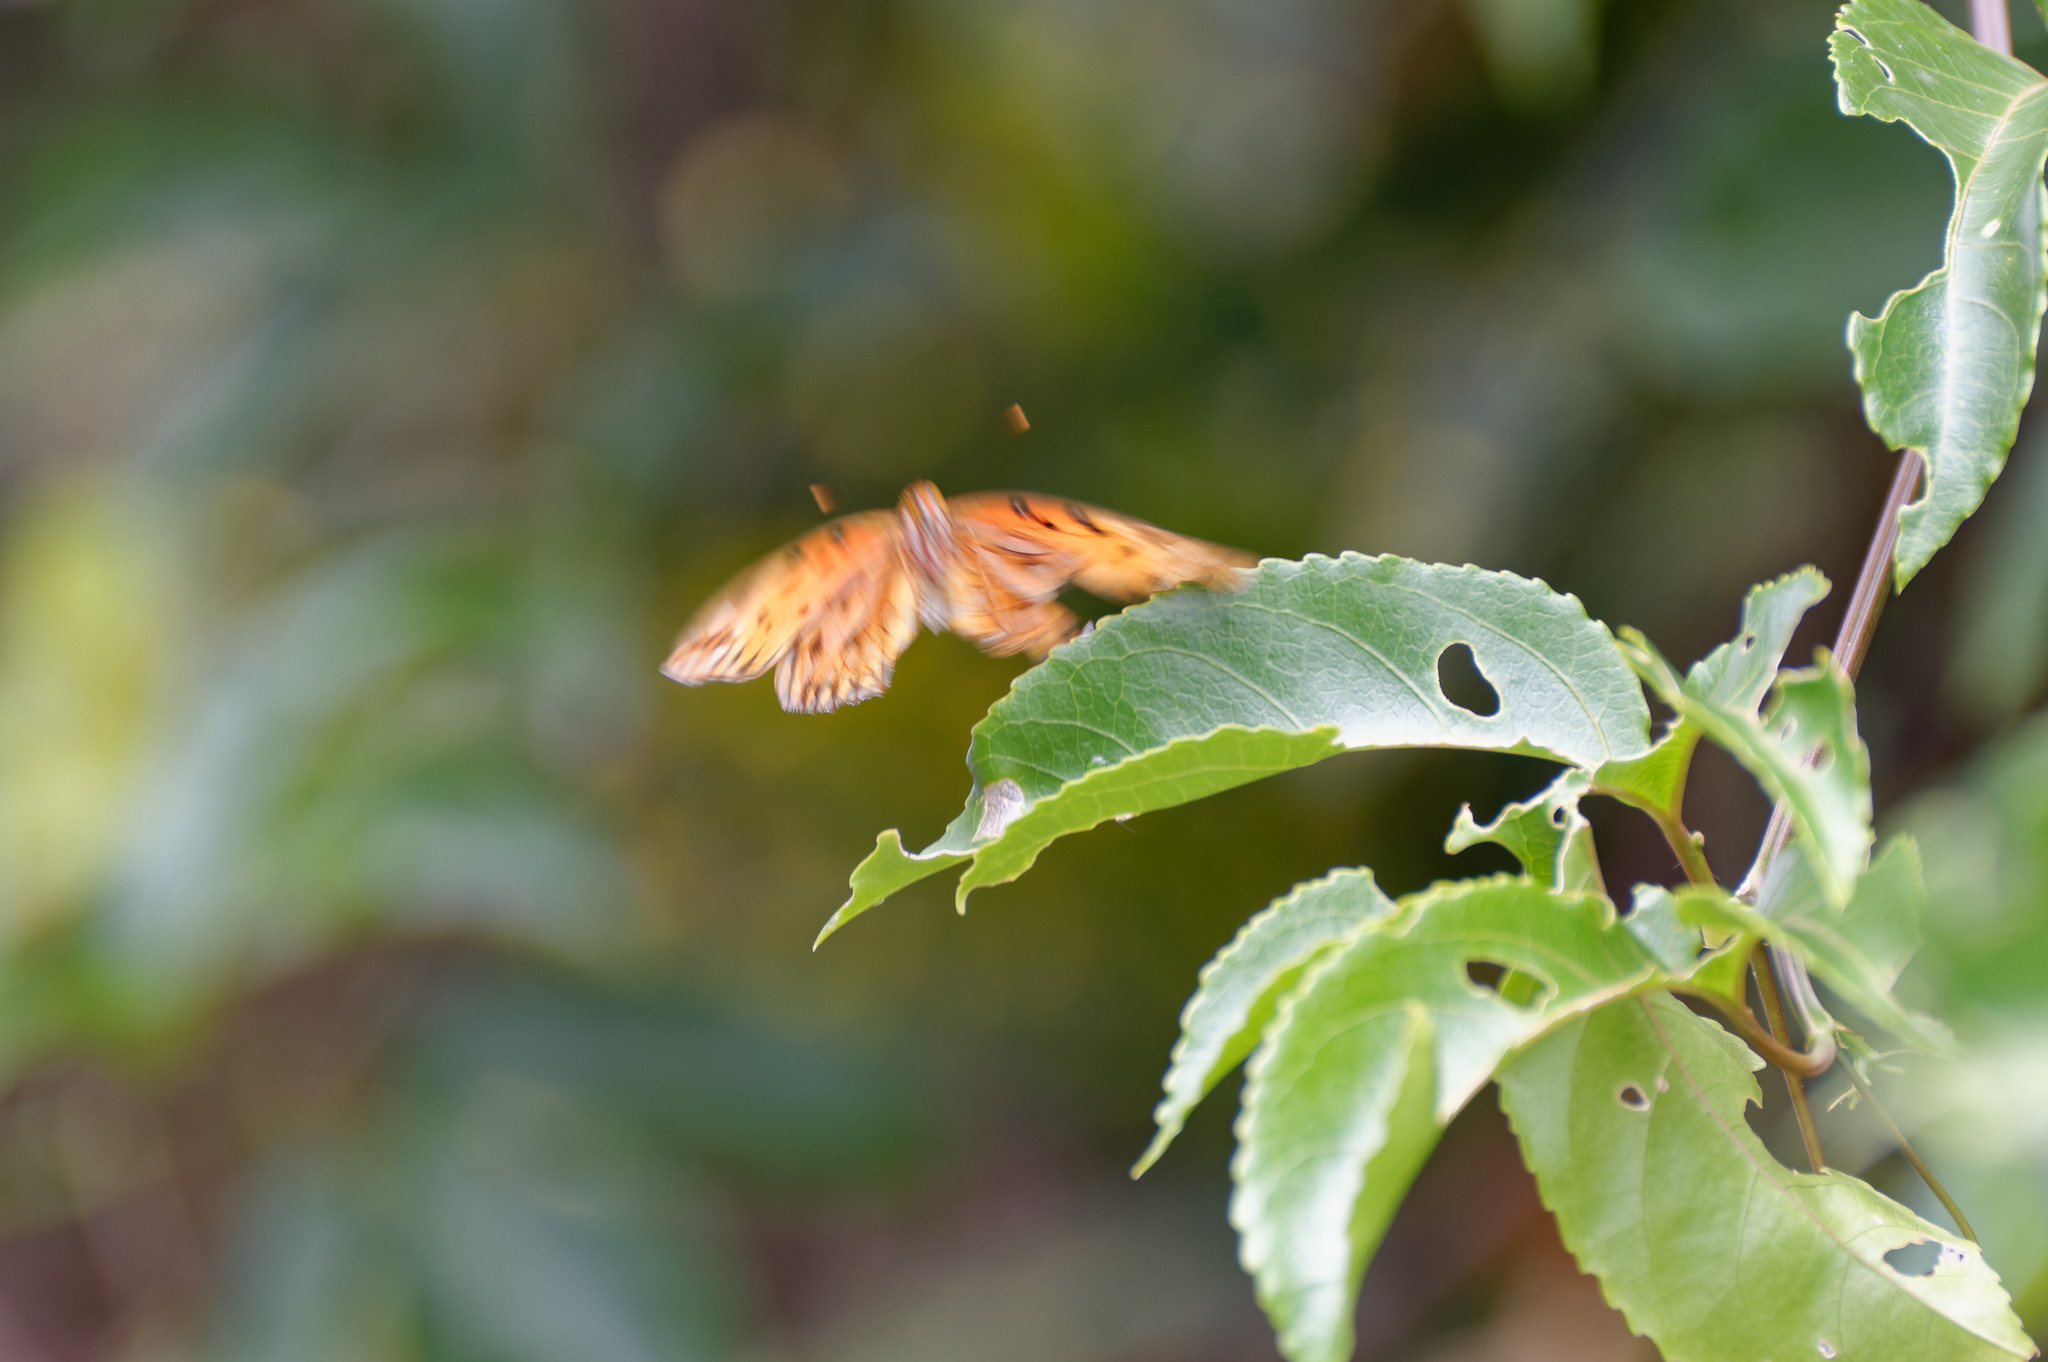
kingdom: Animalia
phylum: Arthropoda
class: Insecta
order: Lepidoptera
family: Nymphalidae
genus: Dione
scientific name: Dione vanillae
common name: Gulf fritillary
